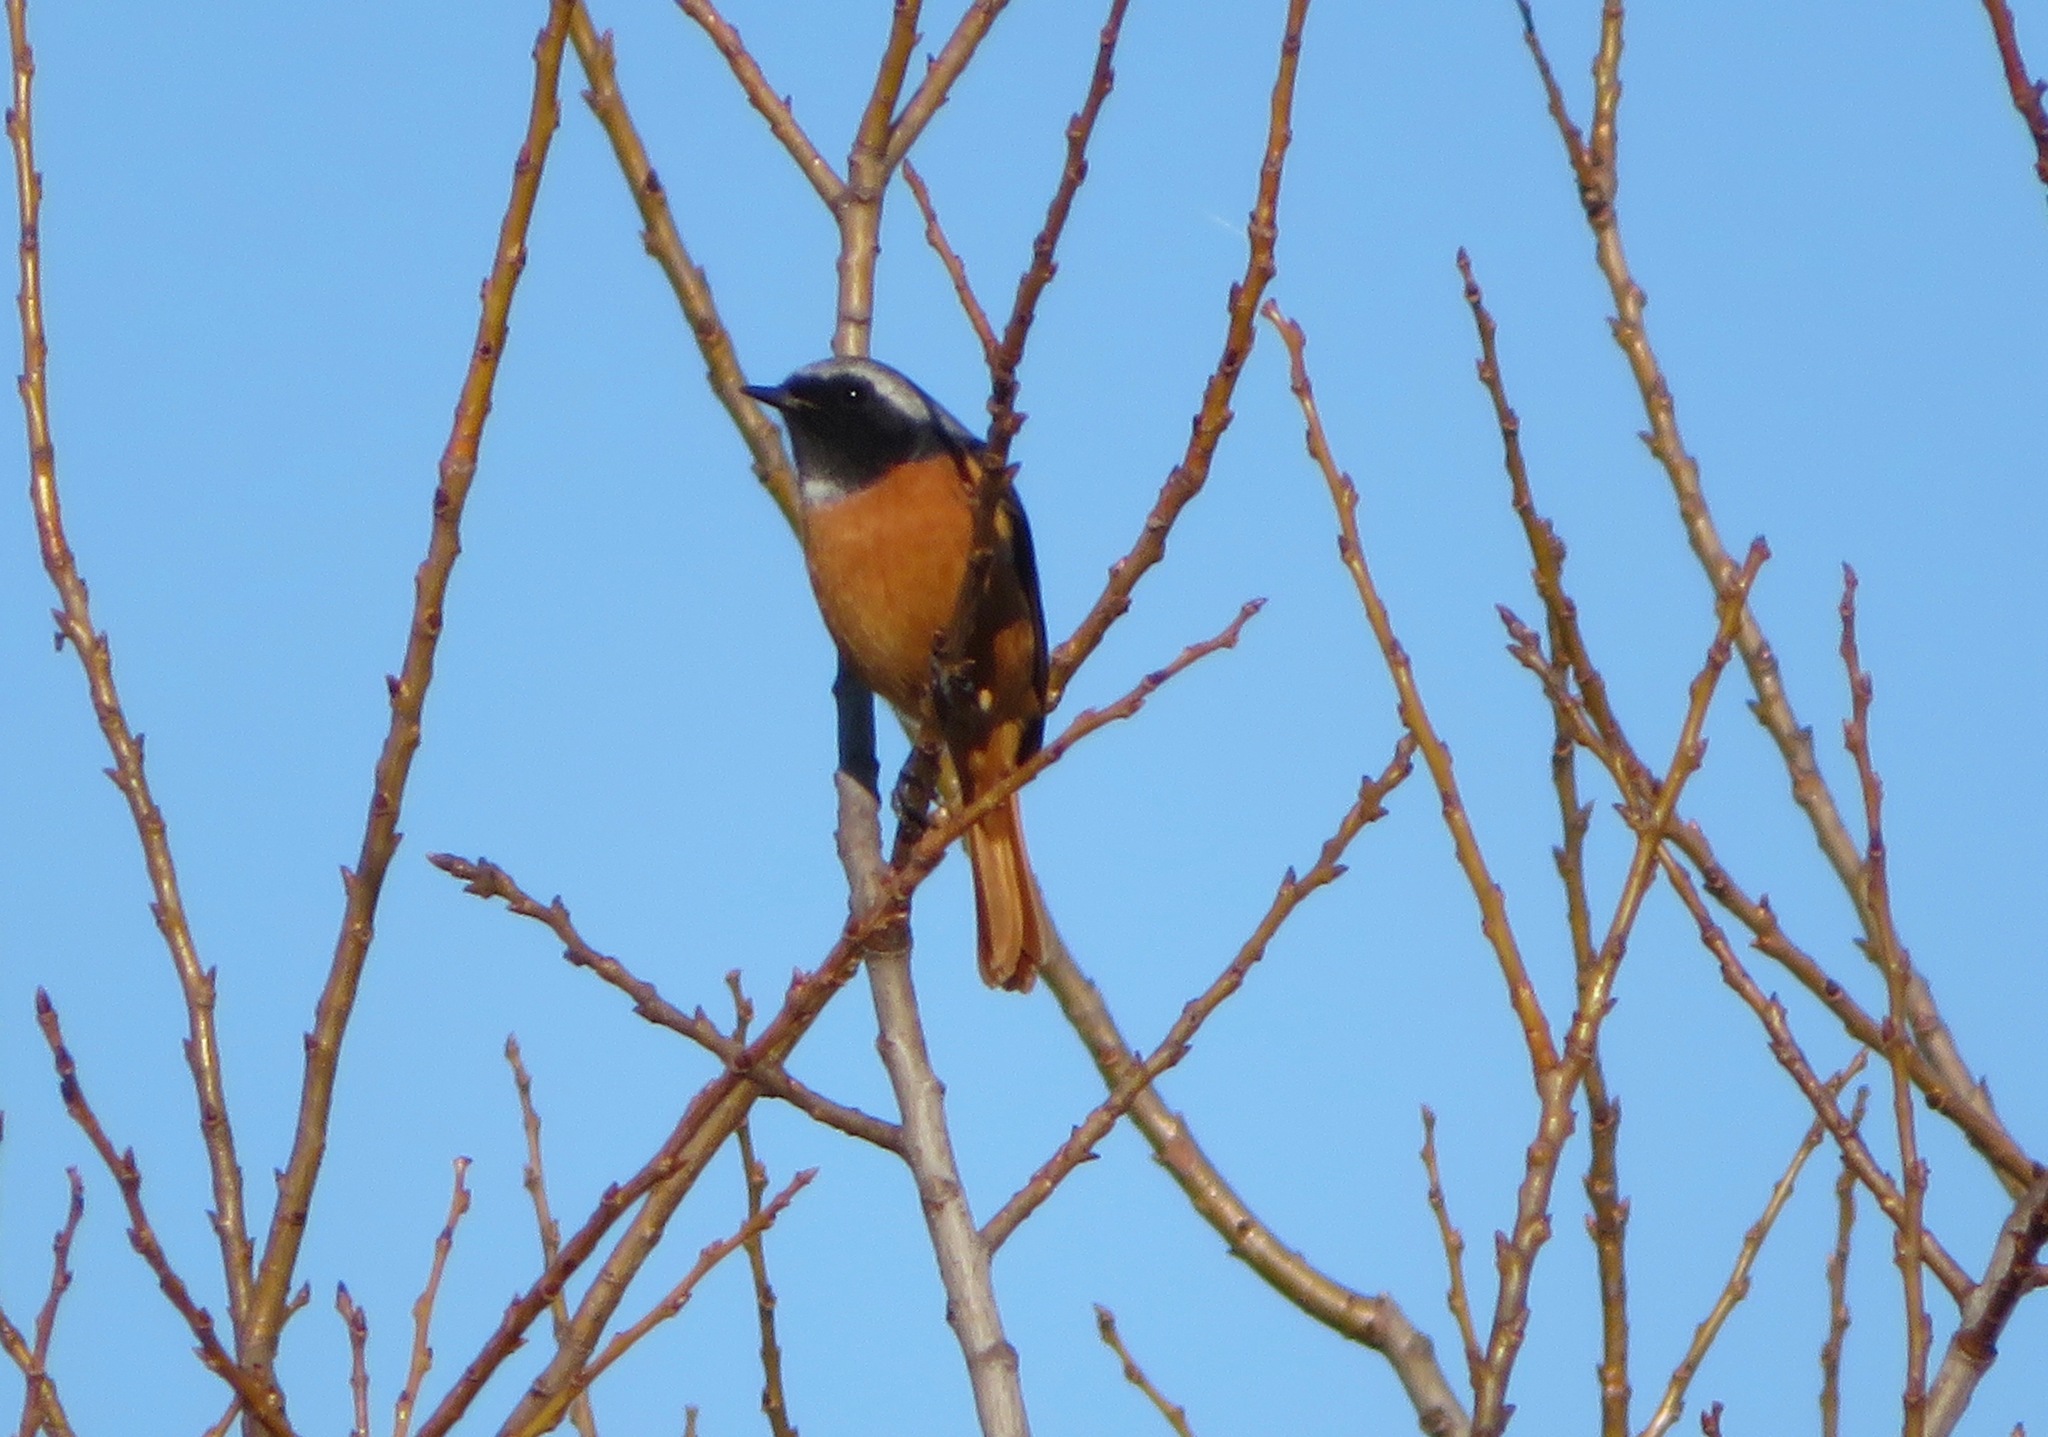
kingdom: Animalia
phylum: Chordata
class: Aves
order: Passeriformes
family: Muscicapidae
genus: Phoenicurus
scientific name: Phoenicurus auroreus
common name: Daurian redstart
